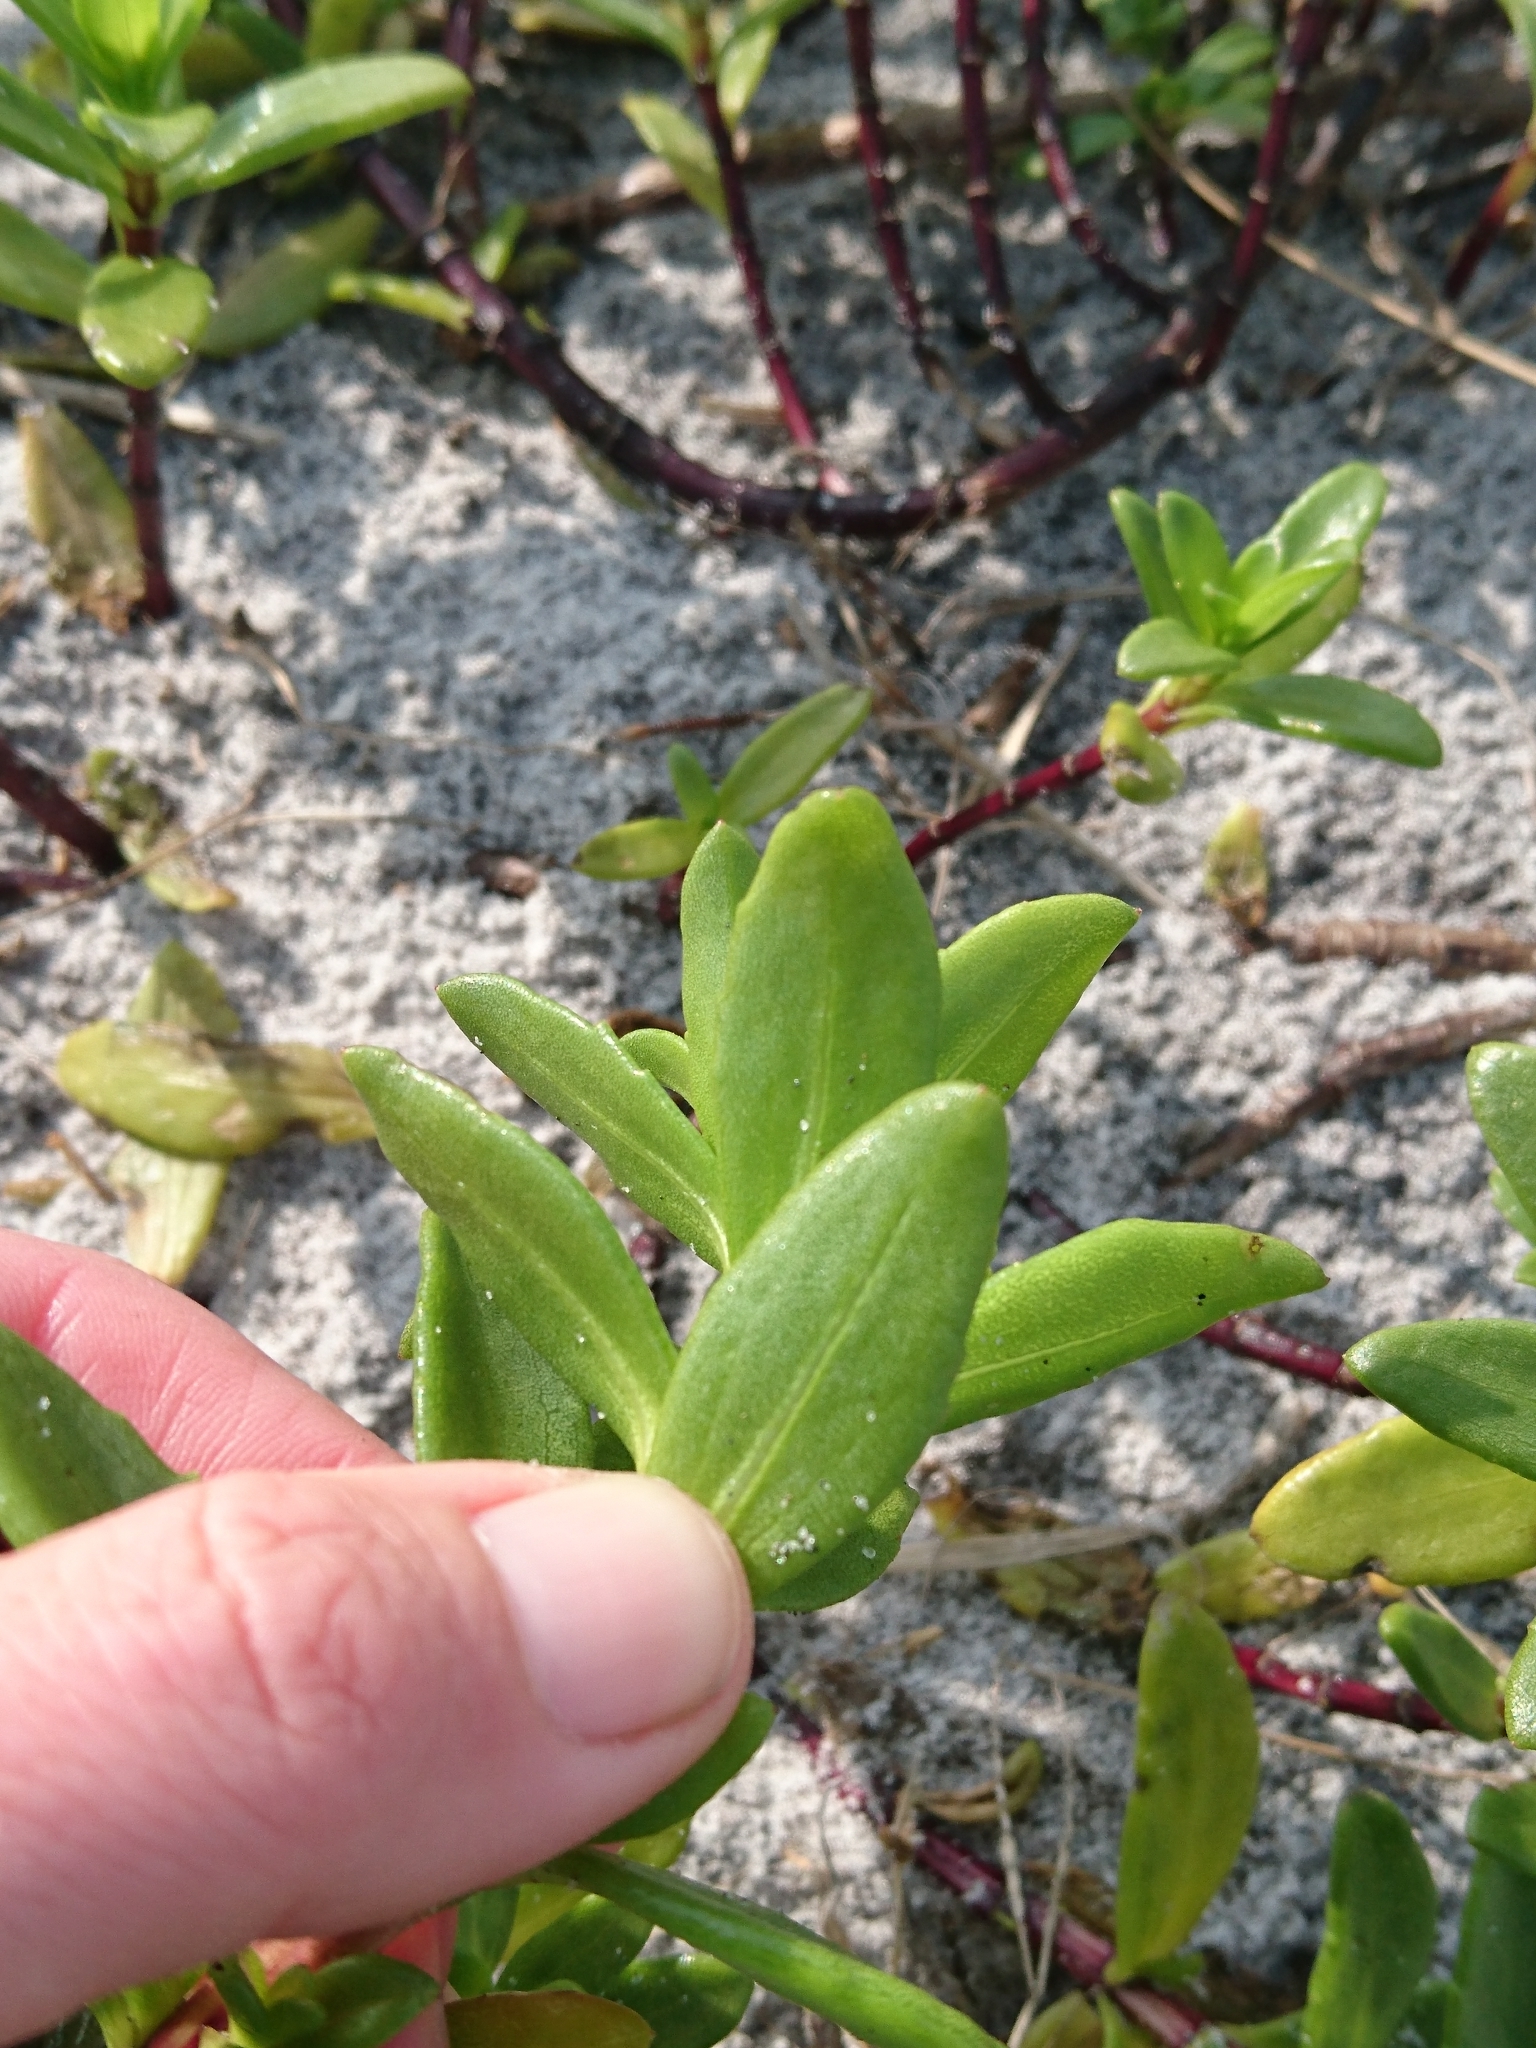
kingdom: Plantae
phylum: Tracheophyta
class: Magnoliopsida
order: Asterales
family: Asteraceae
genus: Iva
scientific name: Iva imbricata
